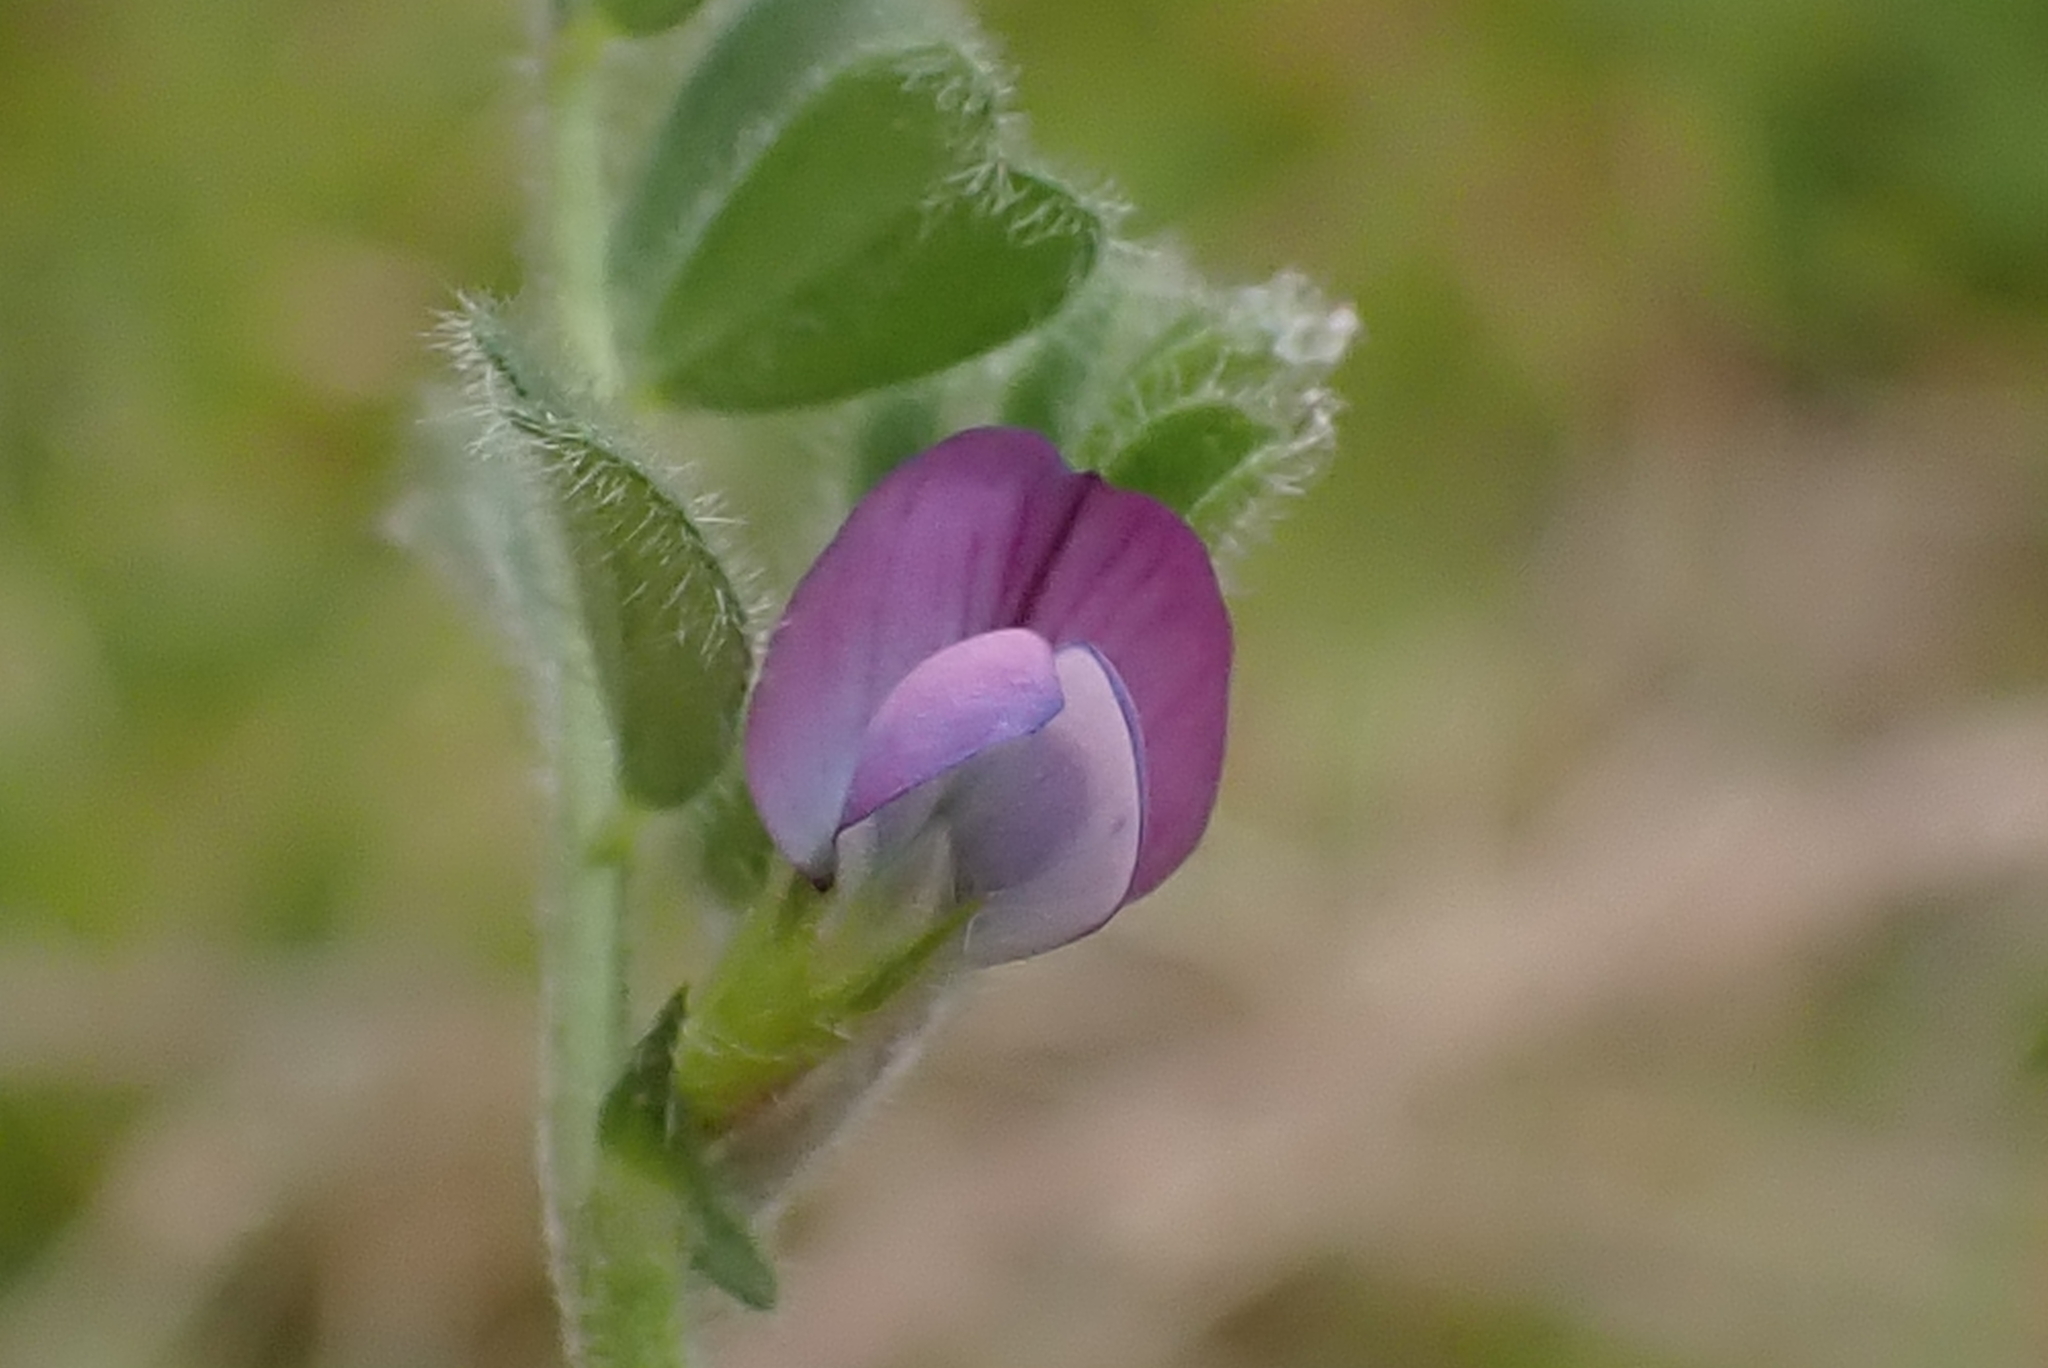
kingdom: Plantae
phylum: Tracheophyta
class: Magnoliopsida
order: Fabales
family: Fabaceae
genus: Vicia
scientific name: Vicia lathyroides
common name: Spring vetch
